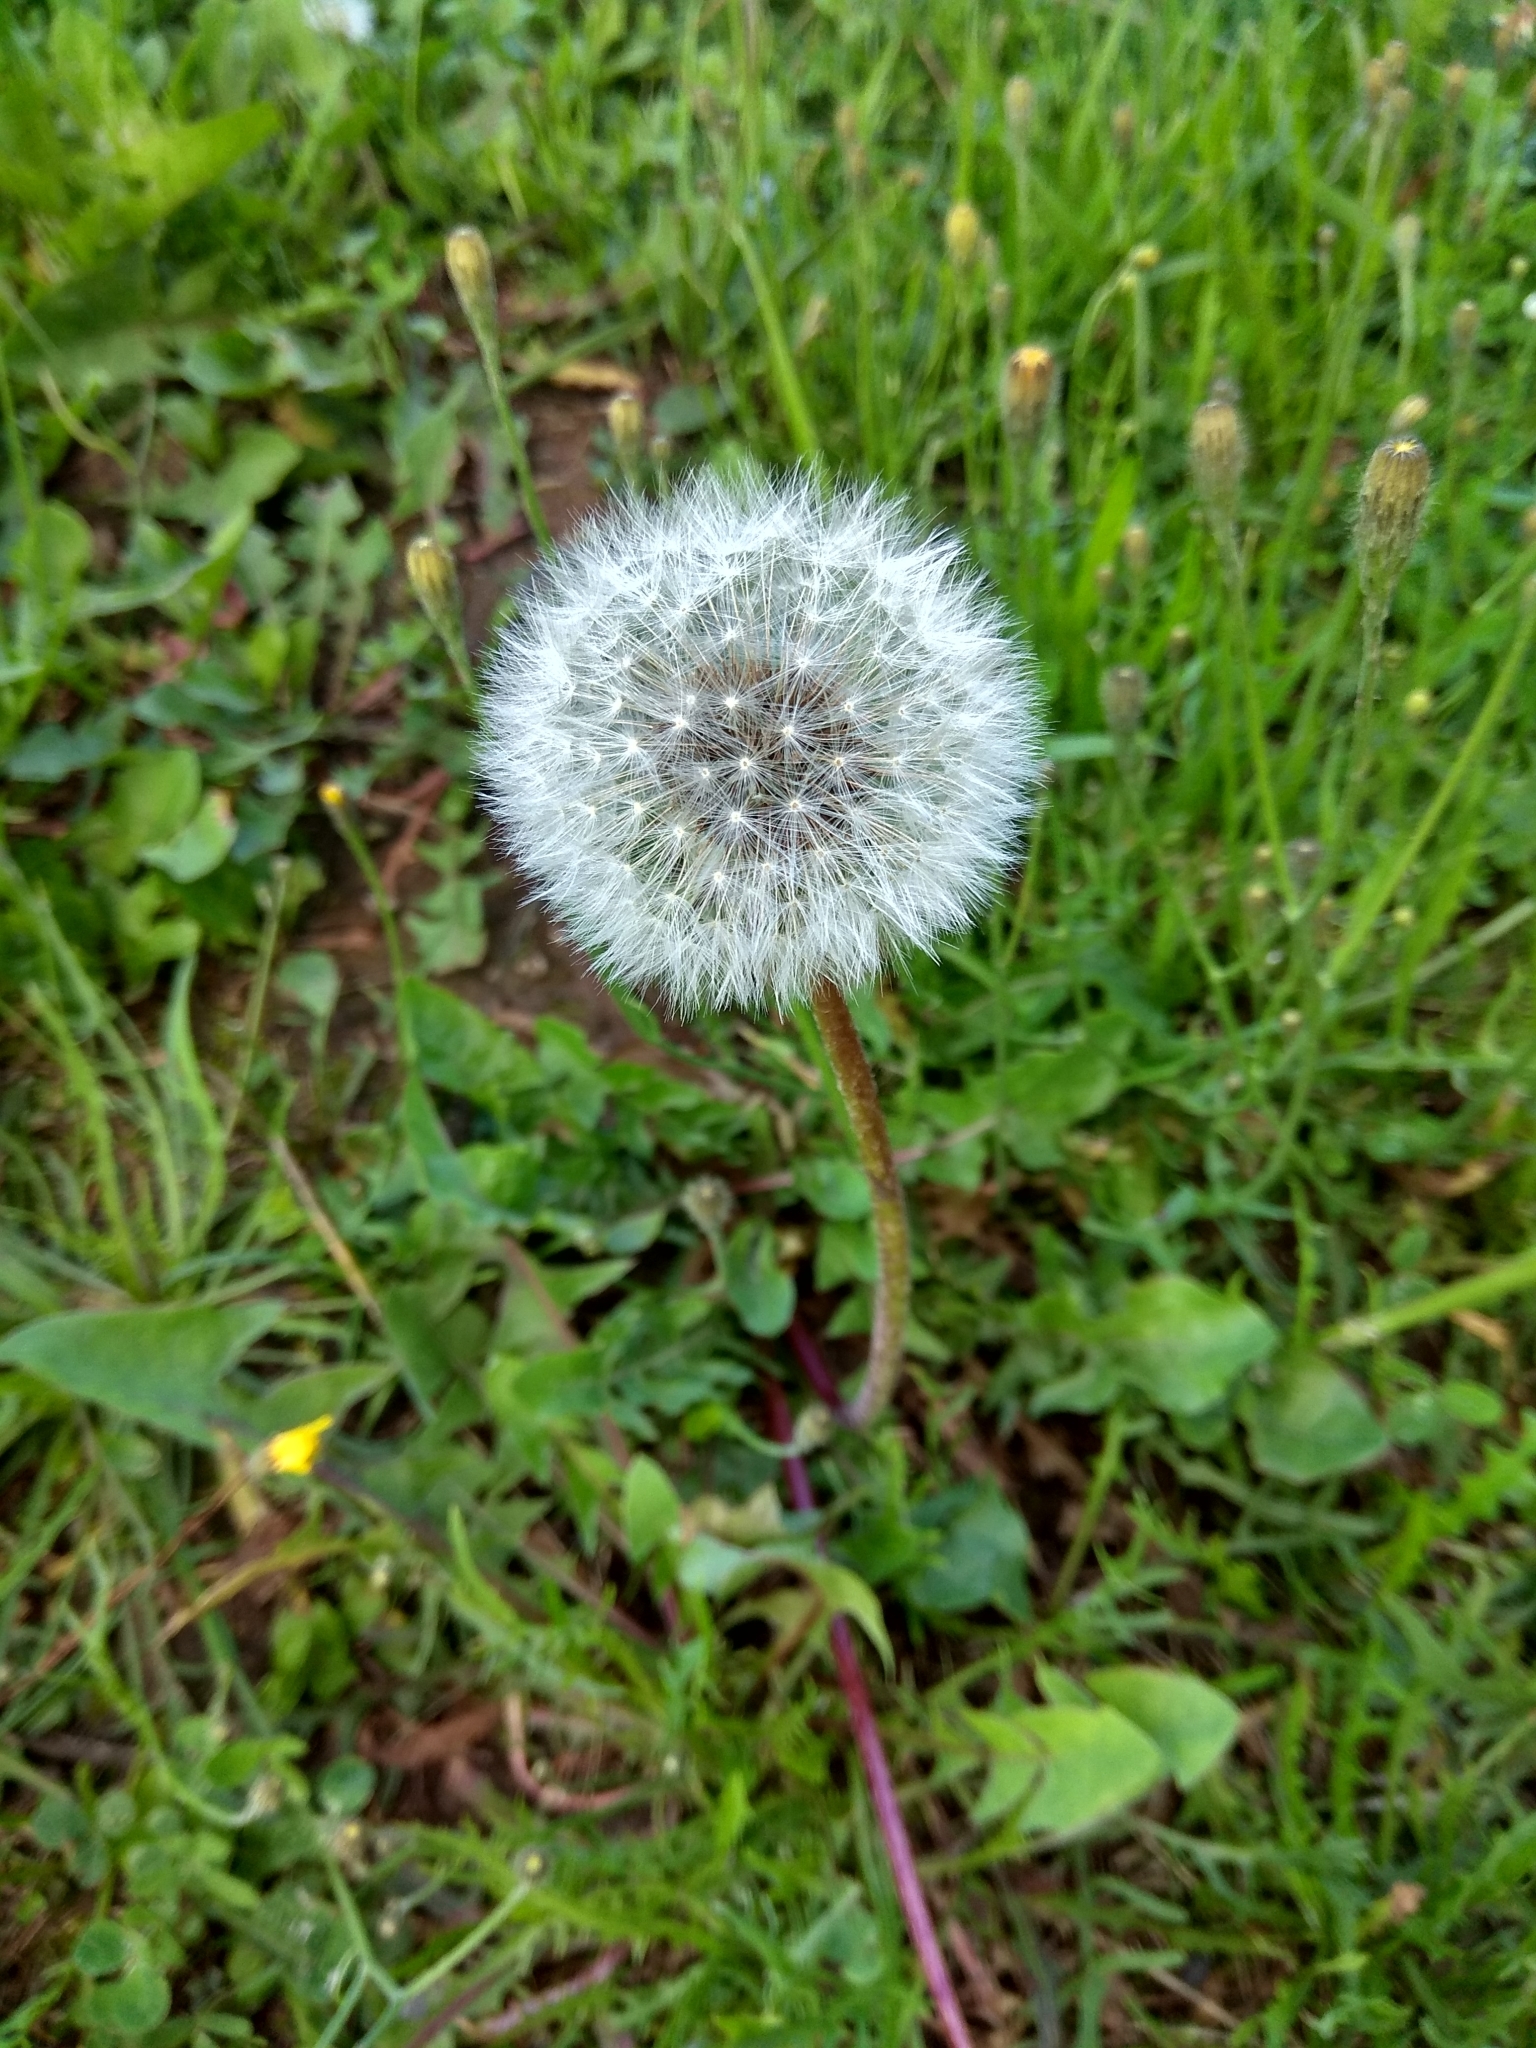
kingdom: Plantae
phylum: Tracheophyta
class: Magnoliopsida
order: Asterales
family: Asteraceae
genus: Taraxacum
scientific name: Taraxacum officinale
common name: Common dandelion
